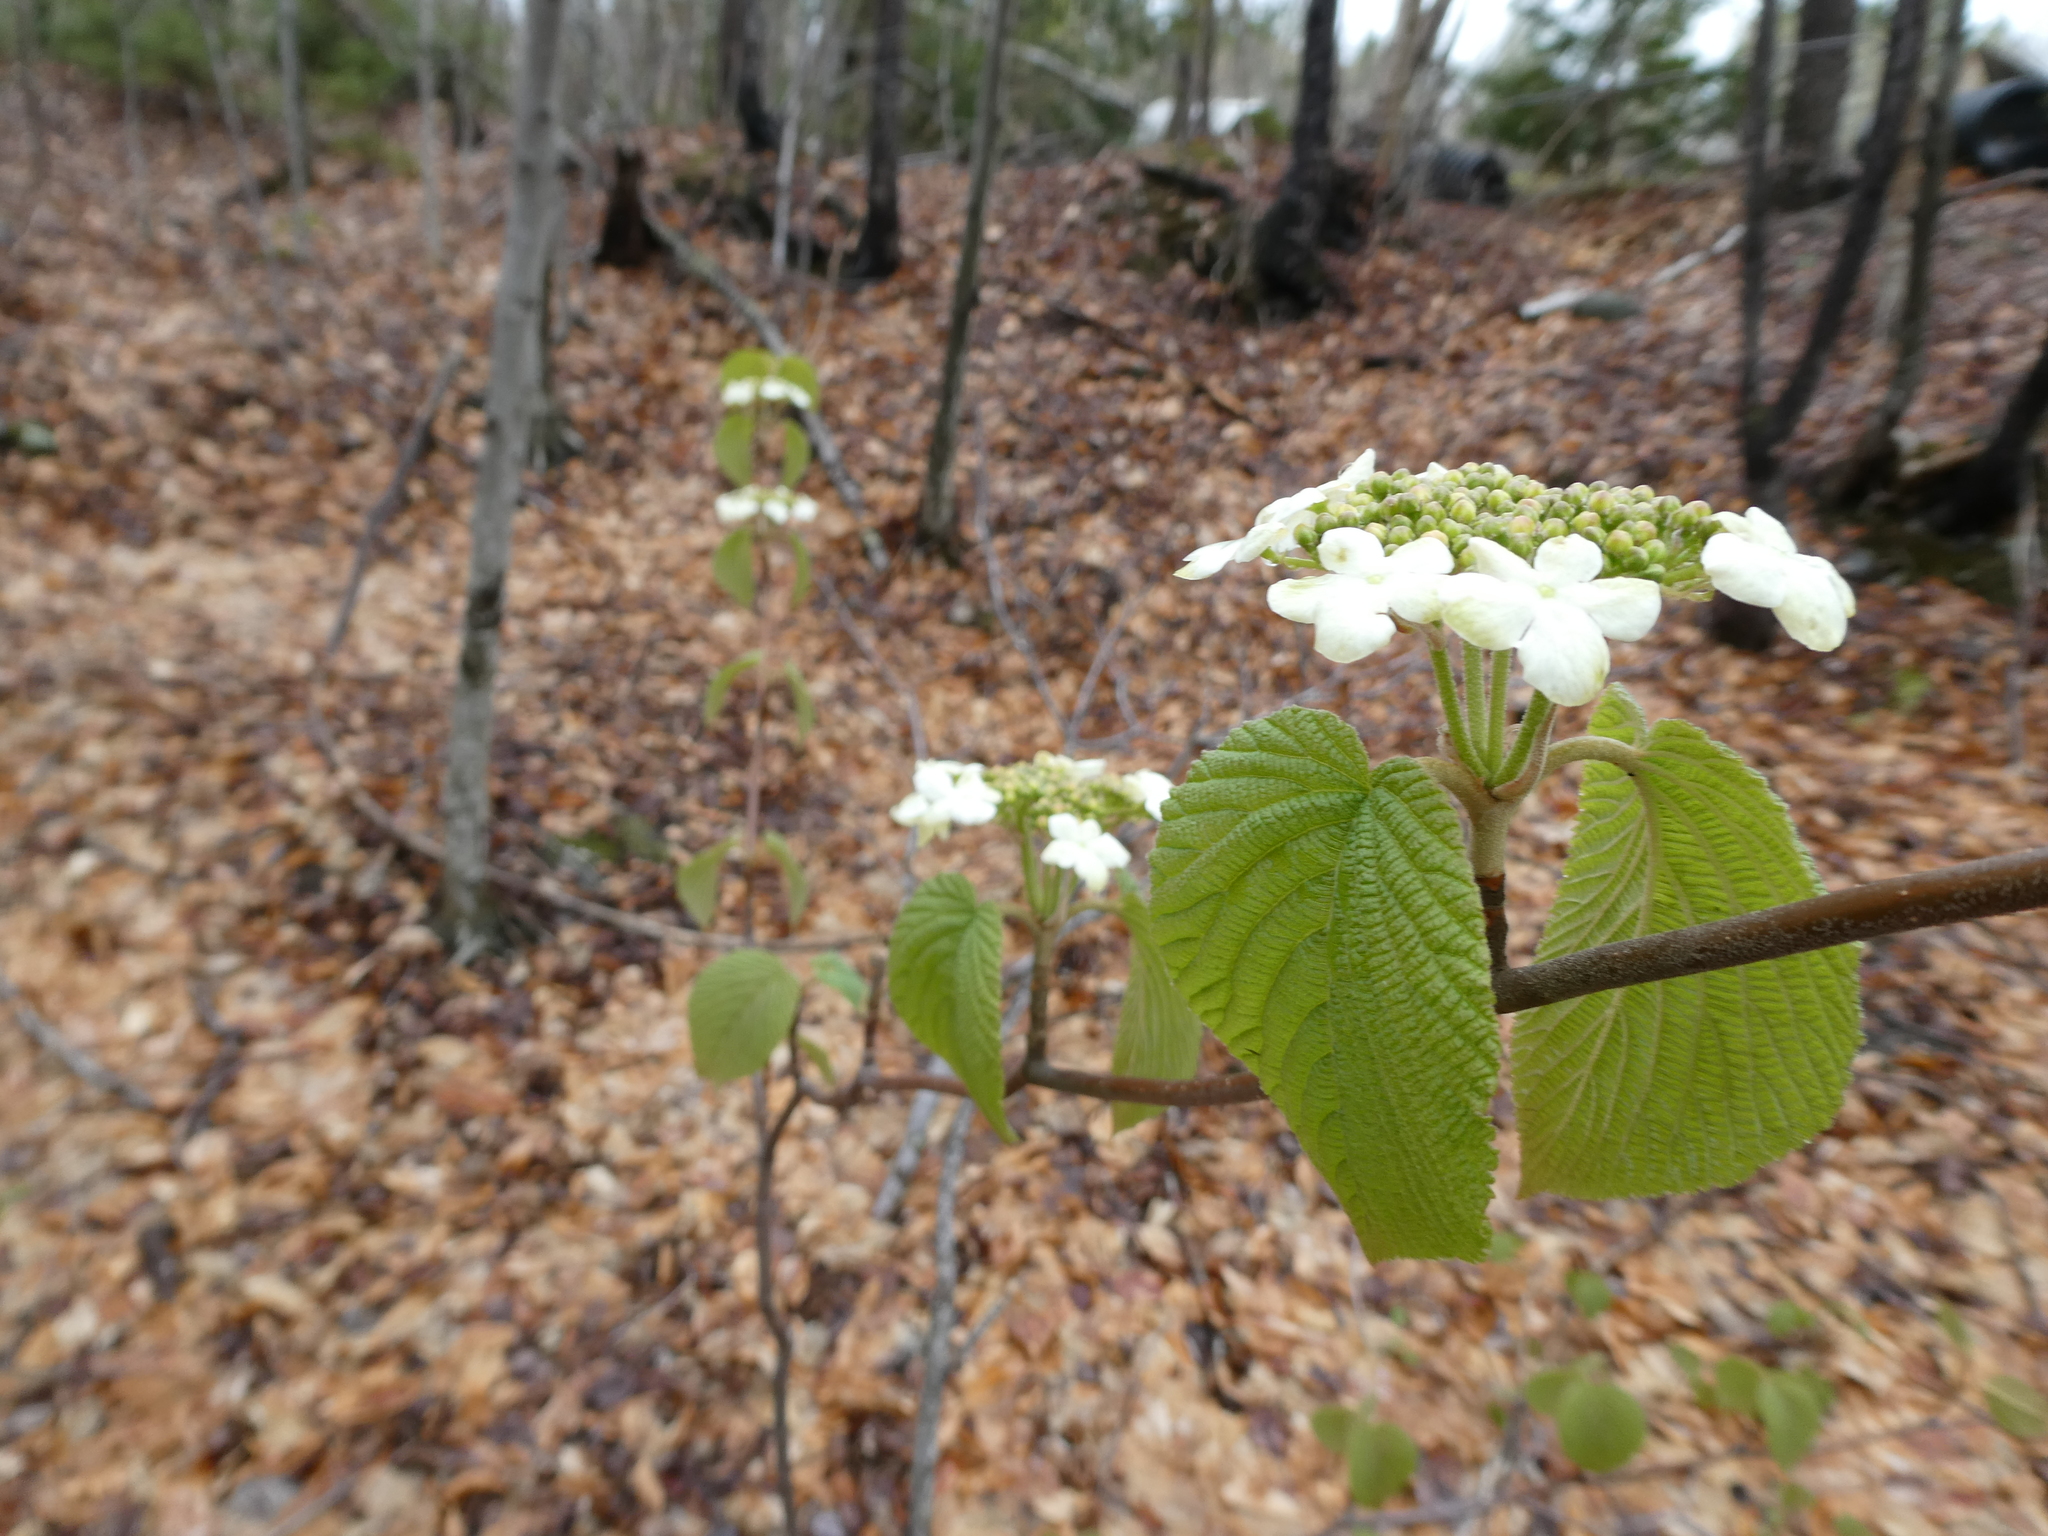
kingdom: Plantae
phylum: Tracheophyta
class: Magnoliopsida
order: Dipsacales
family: Viburnaceae
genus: Viburnum
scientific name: Viburnum lantanoides
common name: Hobblebush
